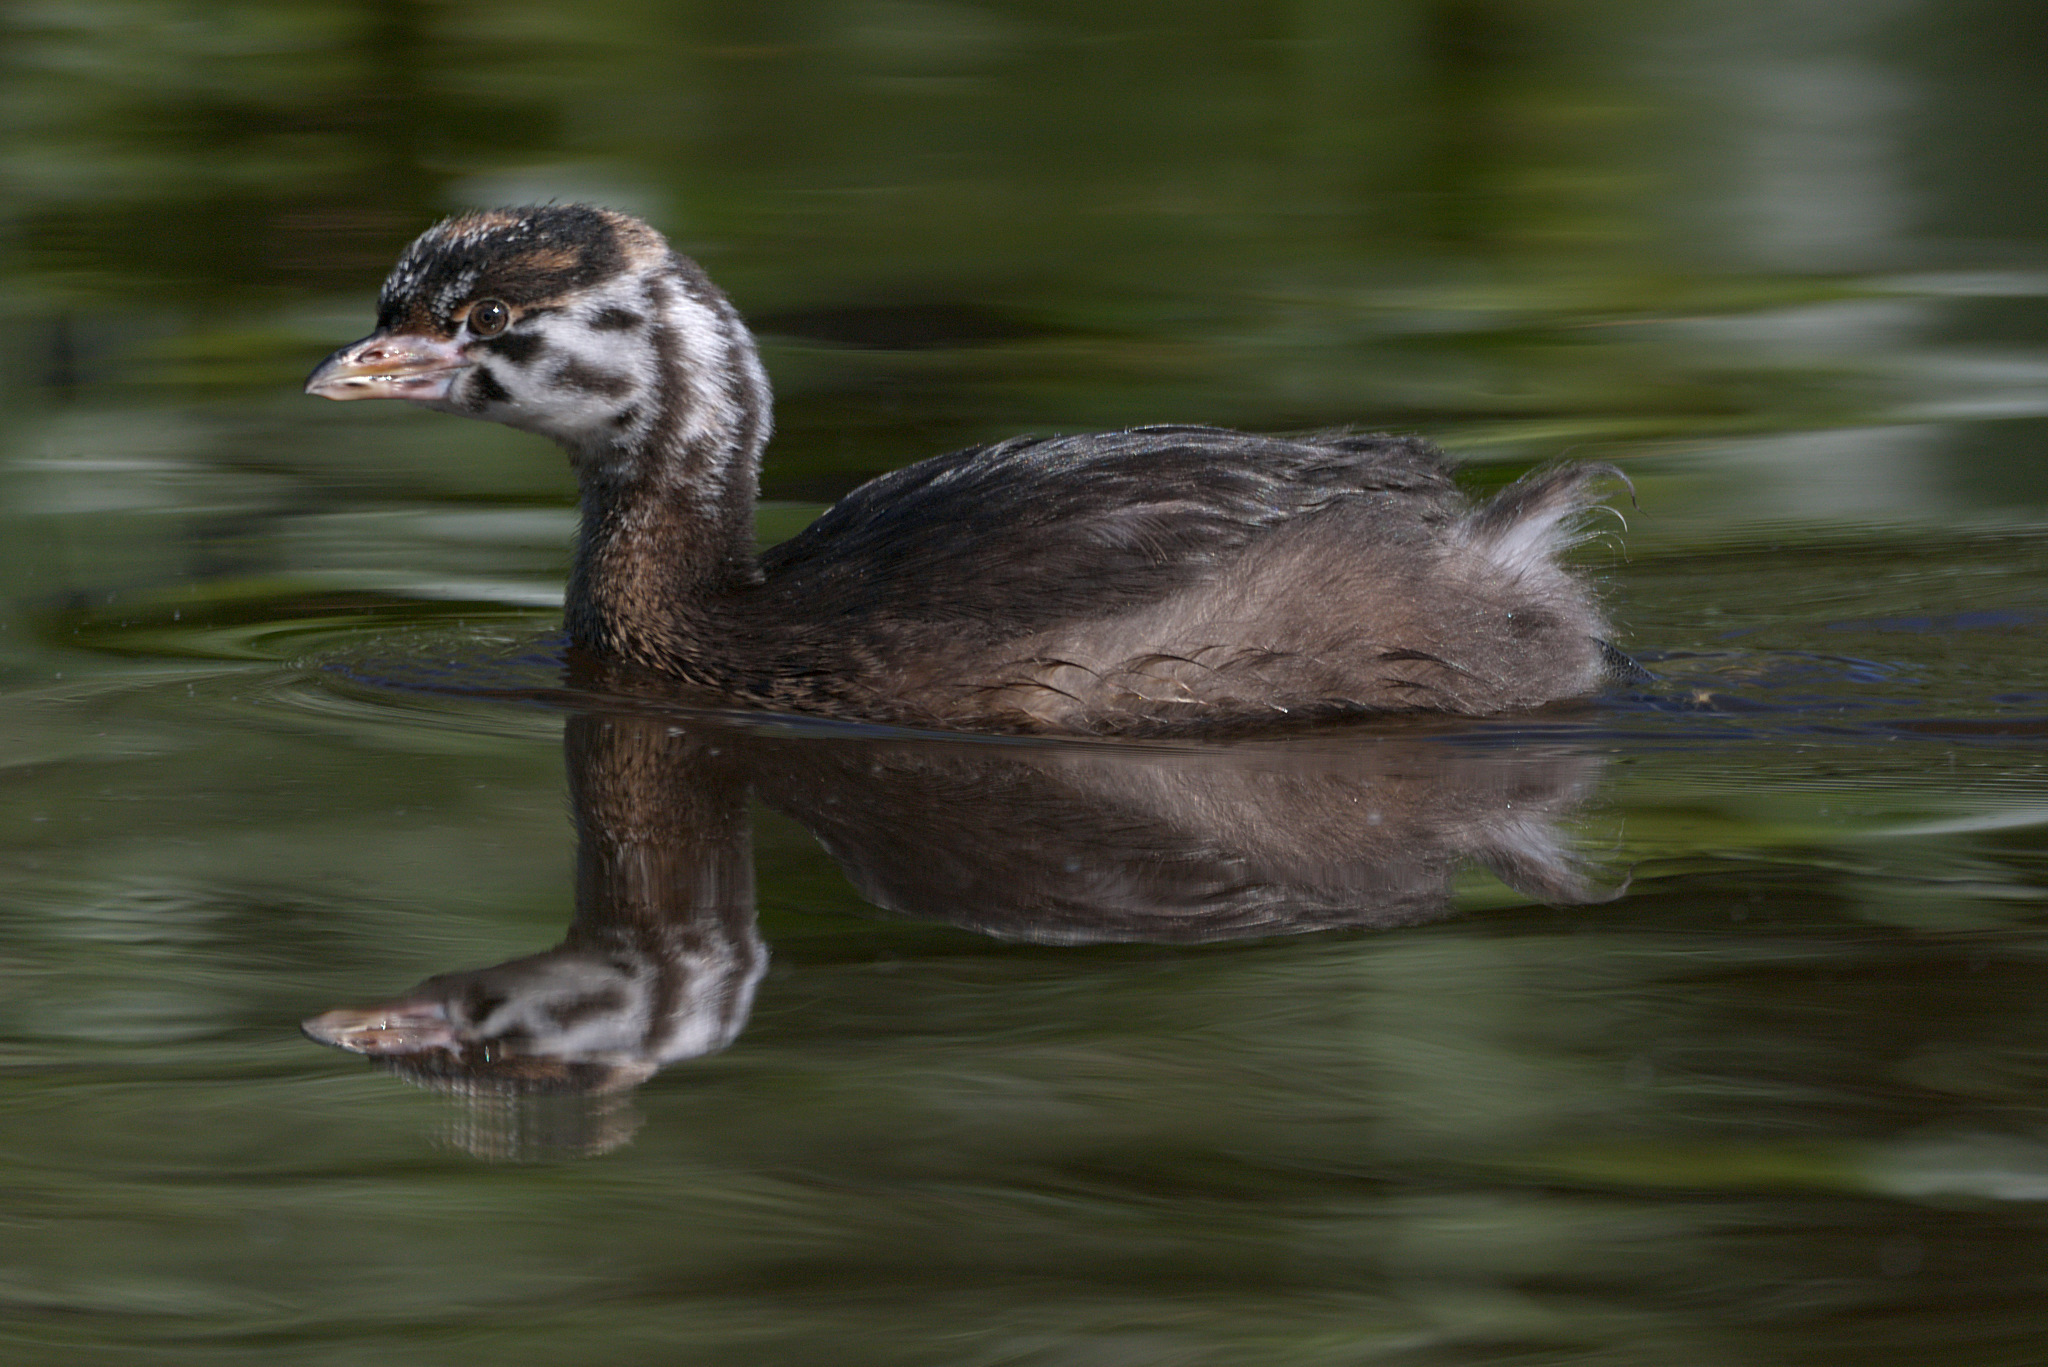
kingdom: Animalia
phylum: Chordata
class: Aves
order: Podicipediformes
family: Podicipedidae
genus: Podilymbus
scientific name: Podilymbus podiceps
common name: Pied-billed grebe
